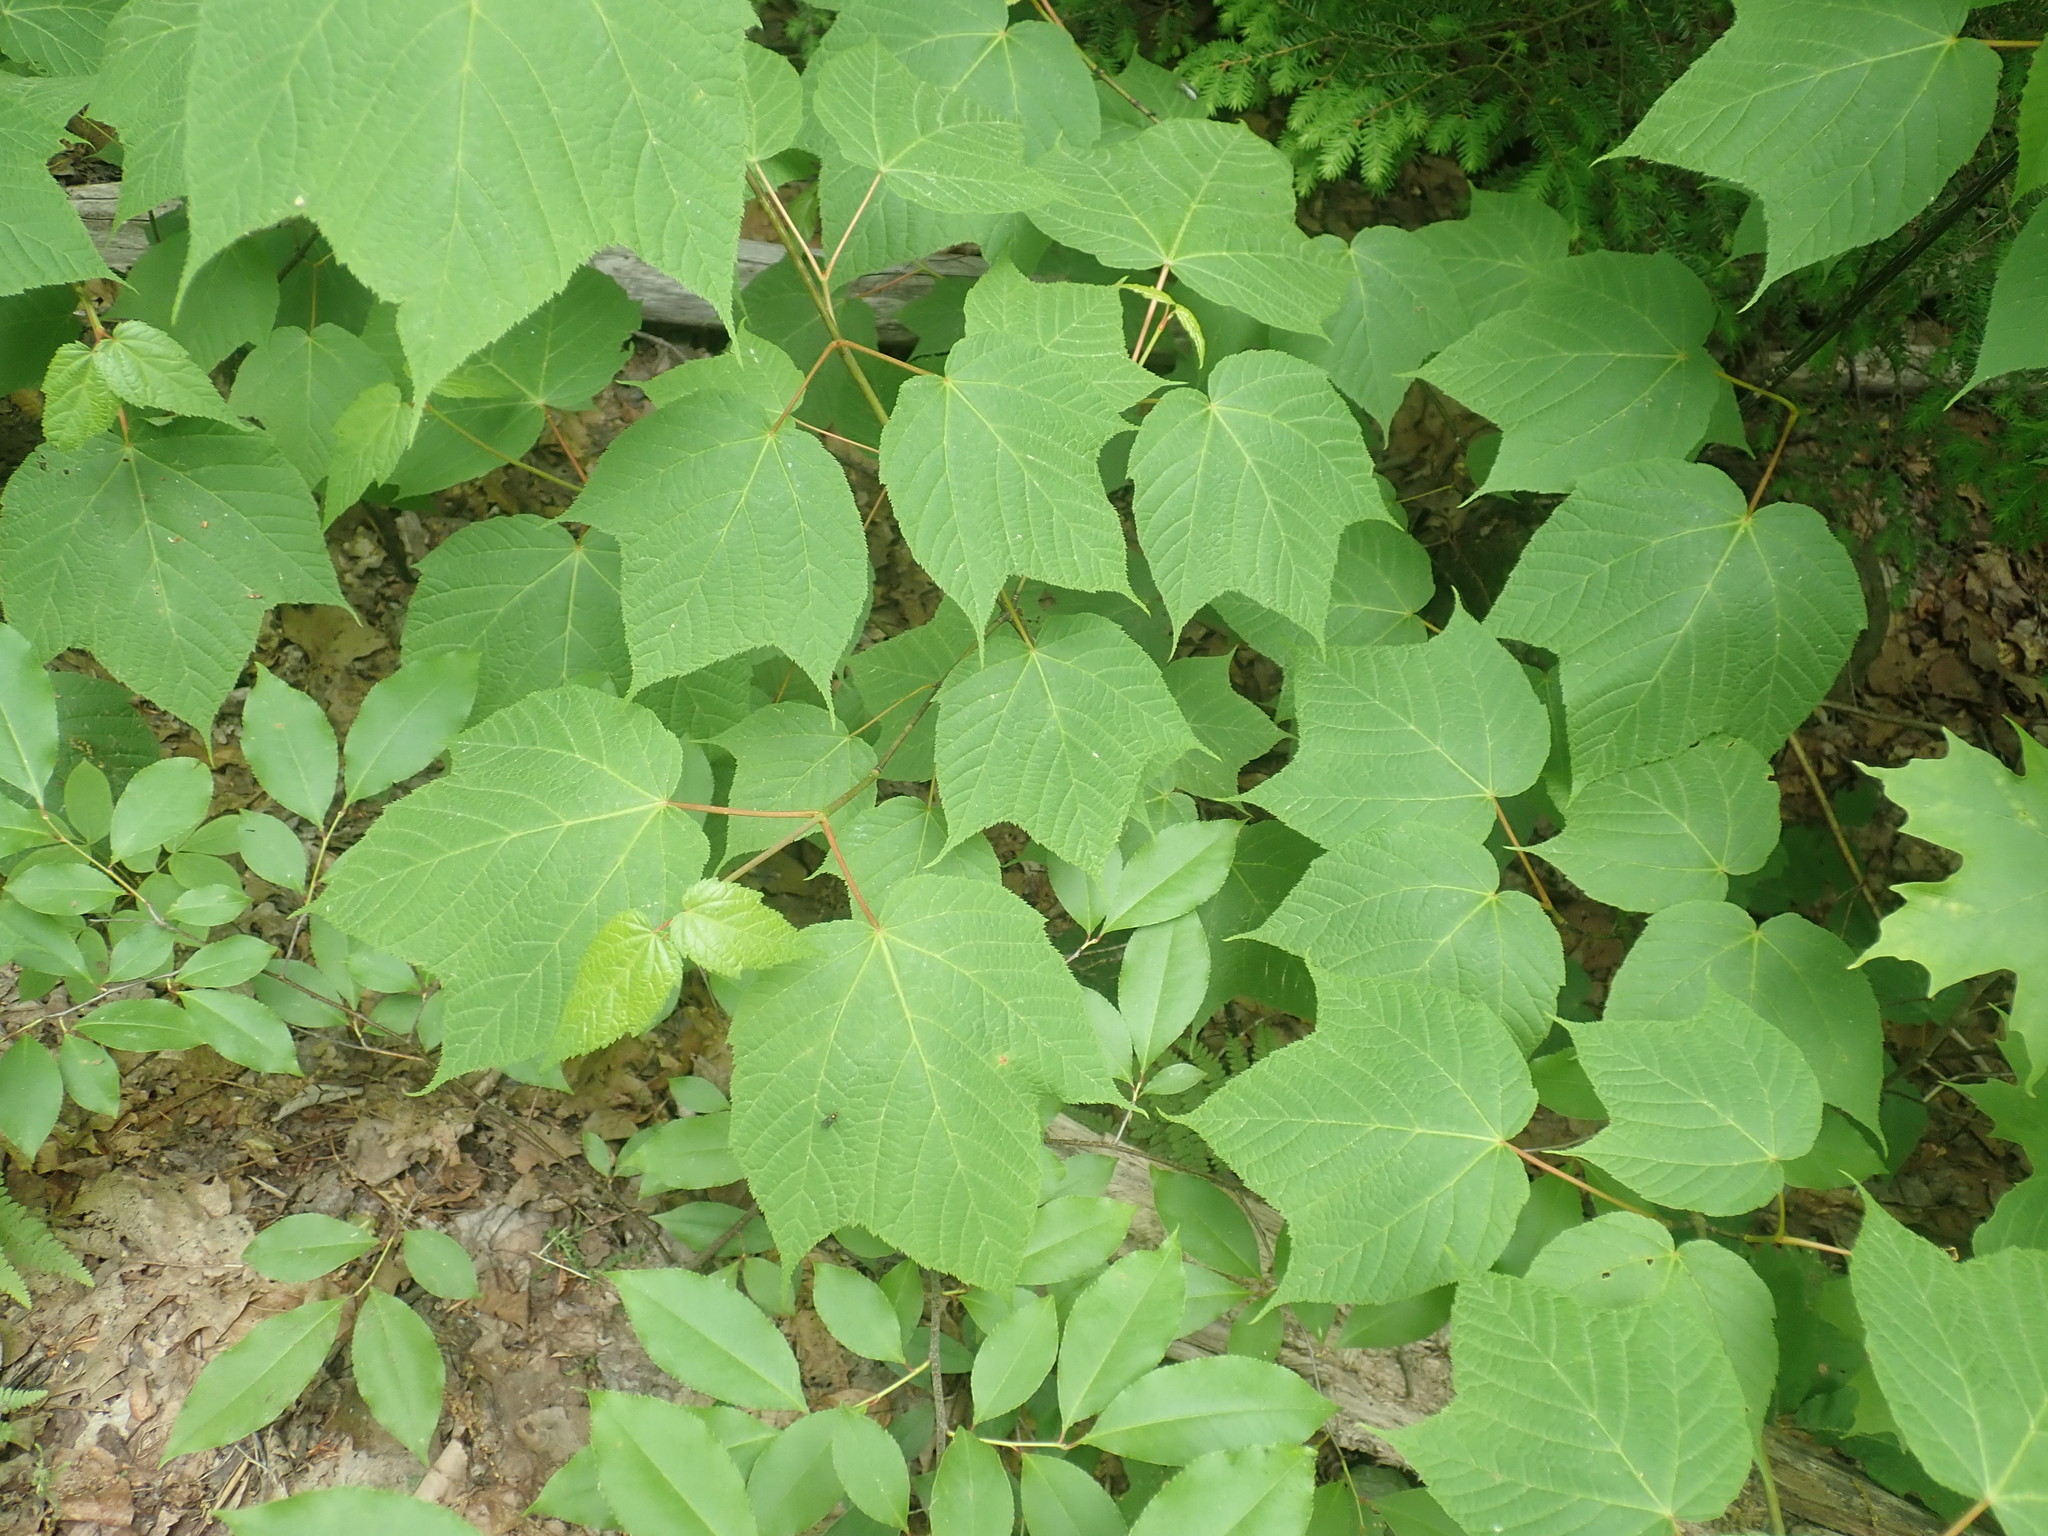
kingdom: Plantae
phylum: Tracheophyta
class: Magnoliopsida
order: Sapindales
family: Sapindaceae
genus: Acer
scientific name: Acer pensylvanicum
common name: Moosewood
